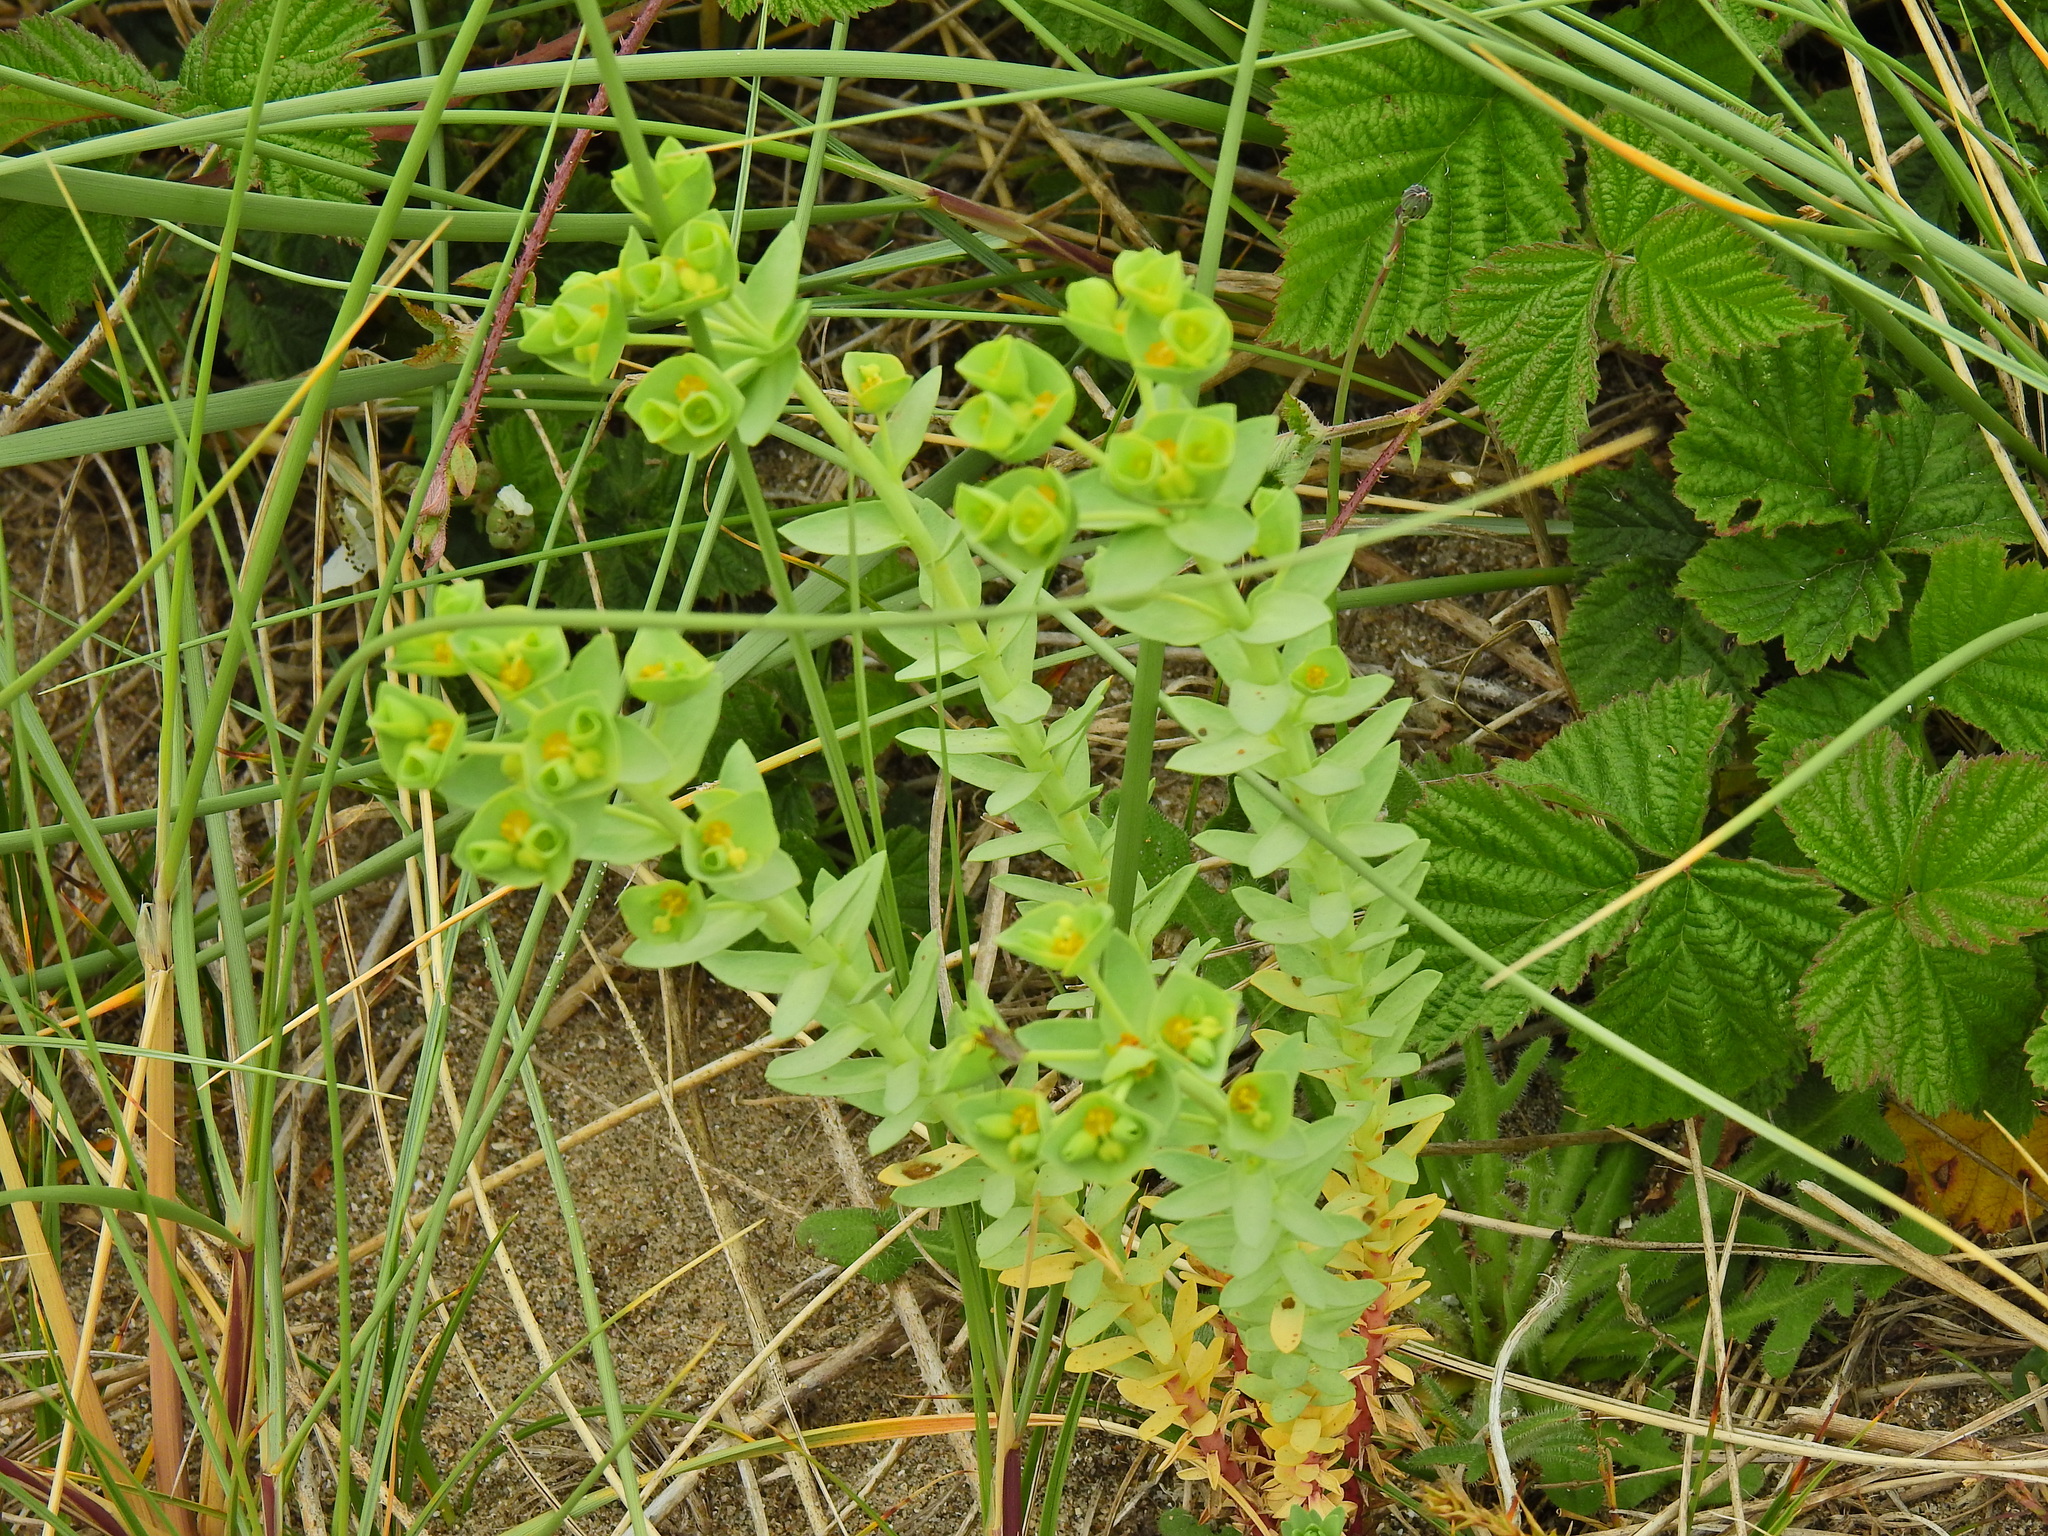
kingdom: Plantae
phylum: Tracheophyta
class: Magnoliopsida
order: Malpighiales
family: Euphorbiaceae
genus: Euphorbia
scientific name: Euphorbia paralias
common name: Sea spurge
